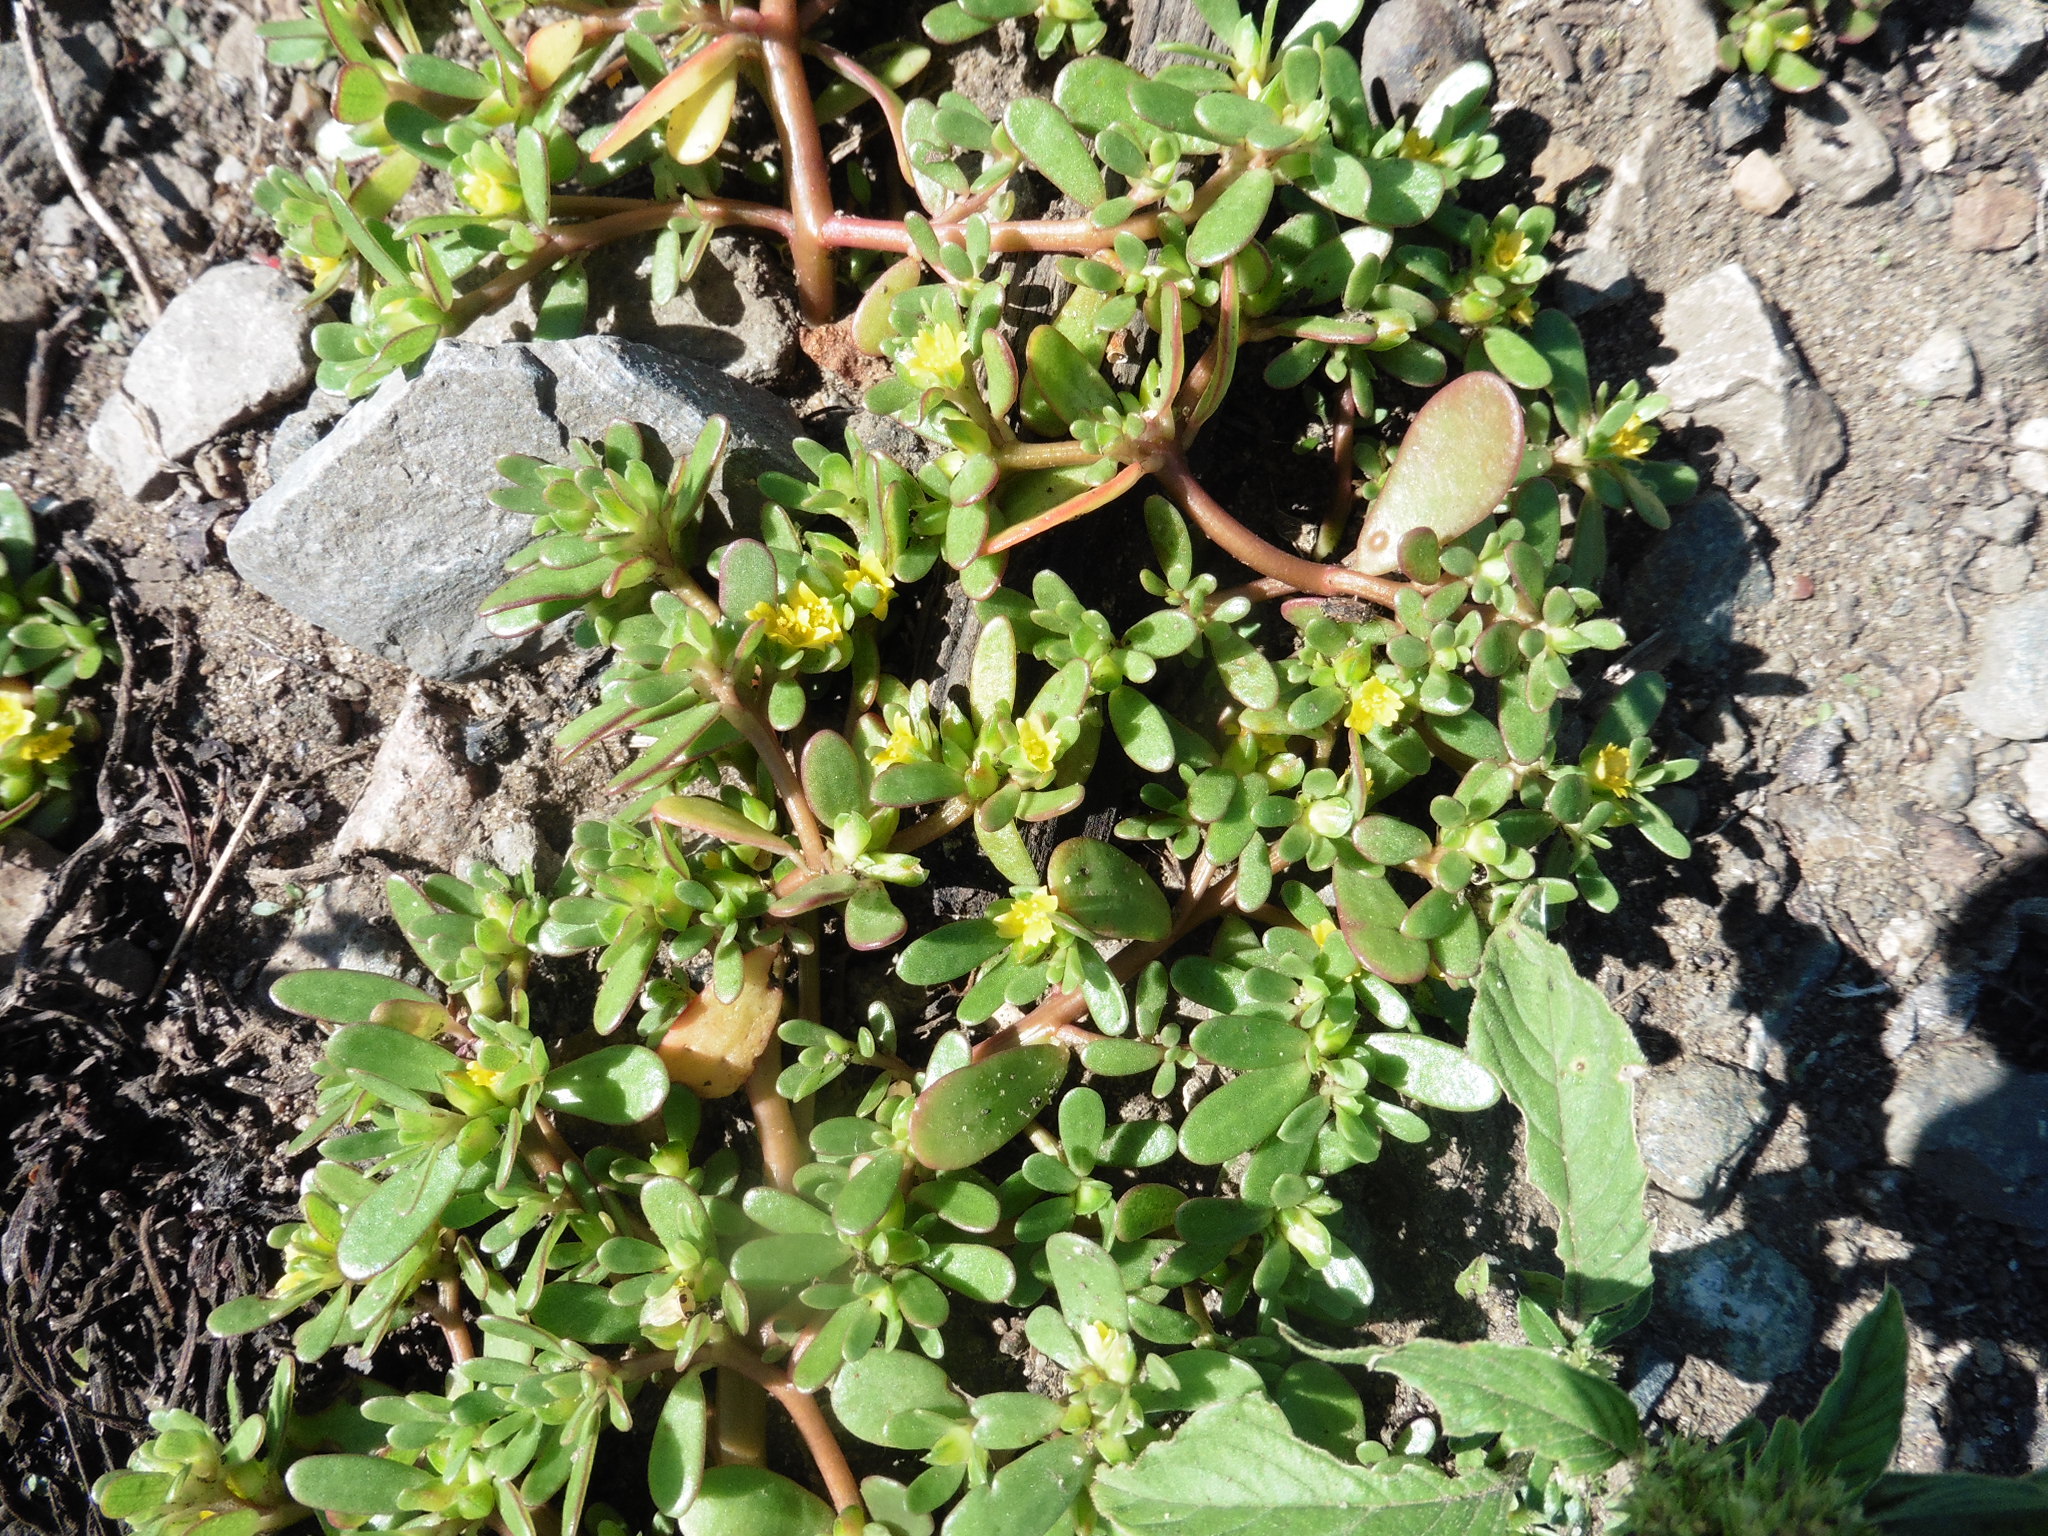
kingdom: Plantae
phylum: Tracheophyta
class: Magnoliopsida
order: Caryophyllales
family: Portulacaceae
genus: Portulaca
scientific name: Portulaca oleracea
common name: Common purslane
